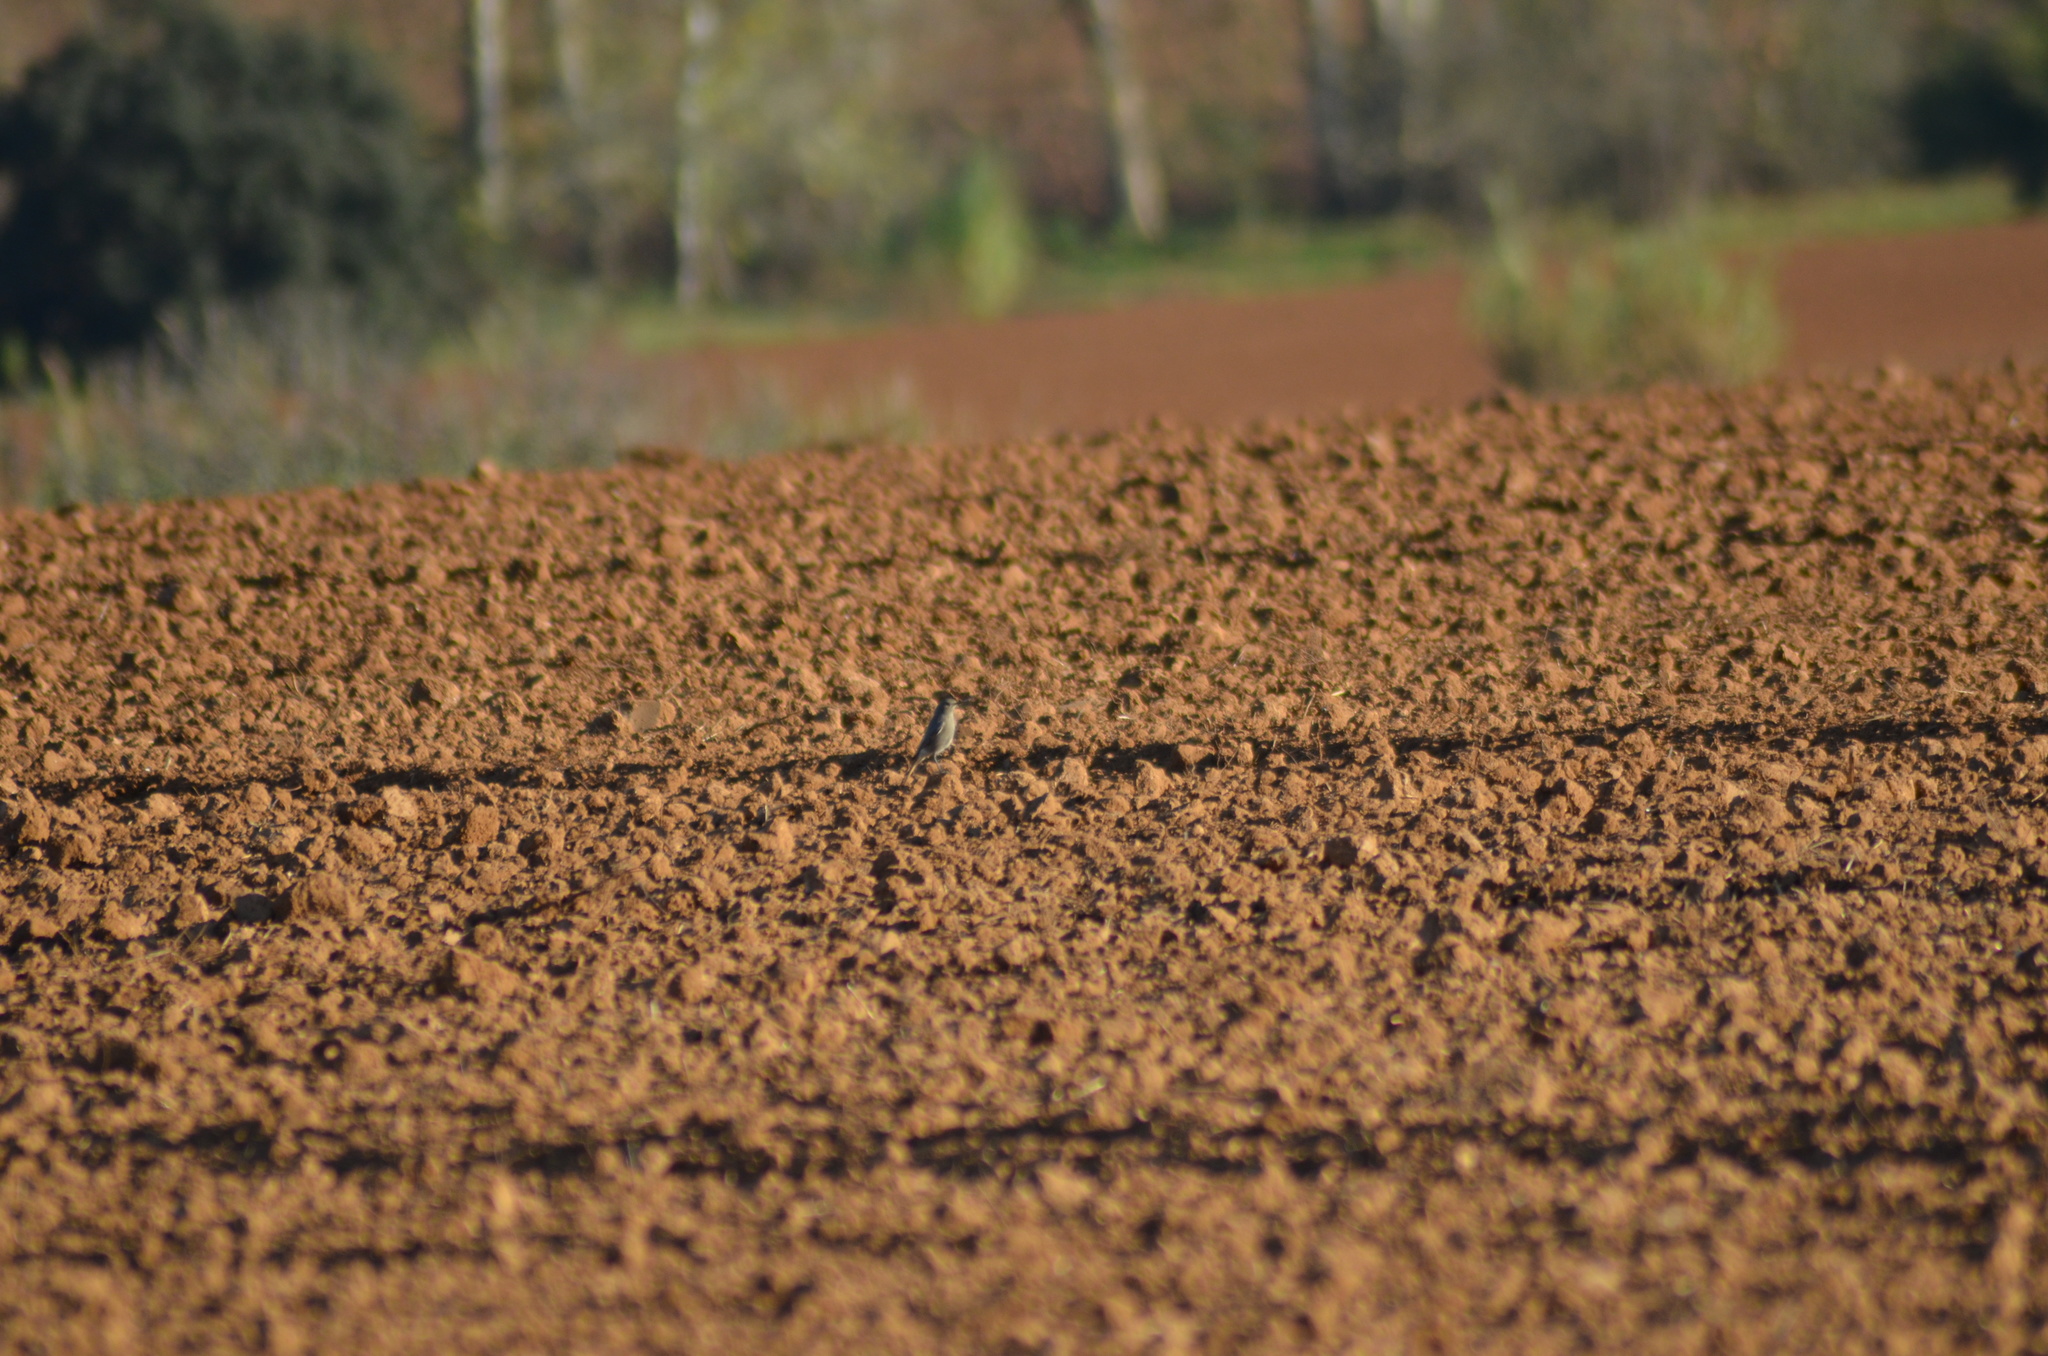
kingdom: Animalia
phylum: Chordata
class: Aves
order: Passeriformes
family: Muscicapidae
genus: Phoenicurus
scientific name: Phoenicurus ochruros
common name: Black redstart
